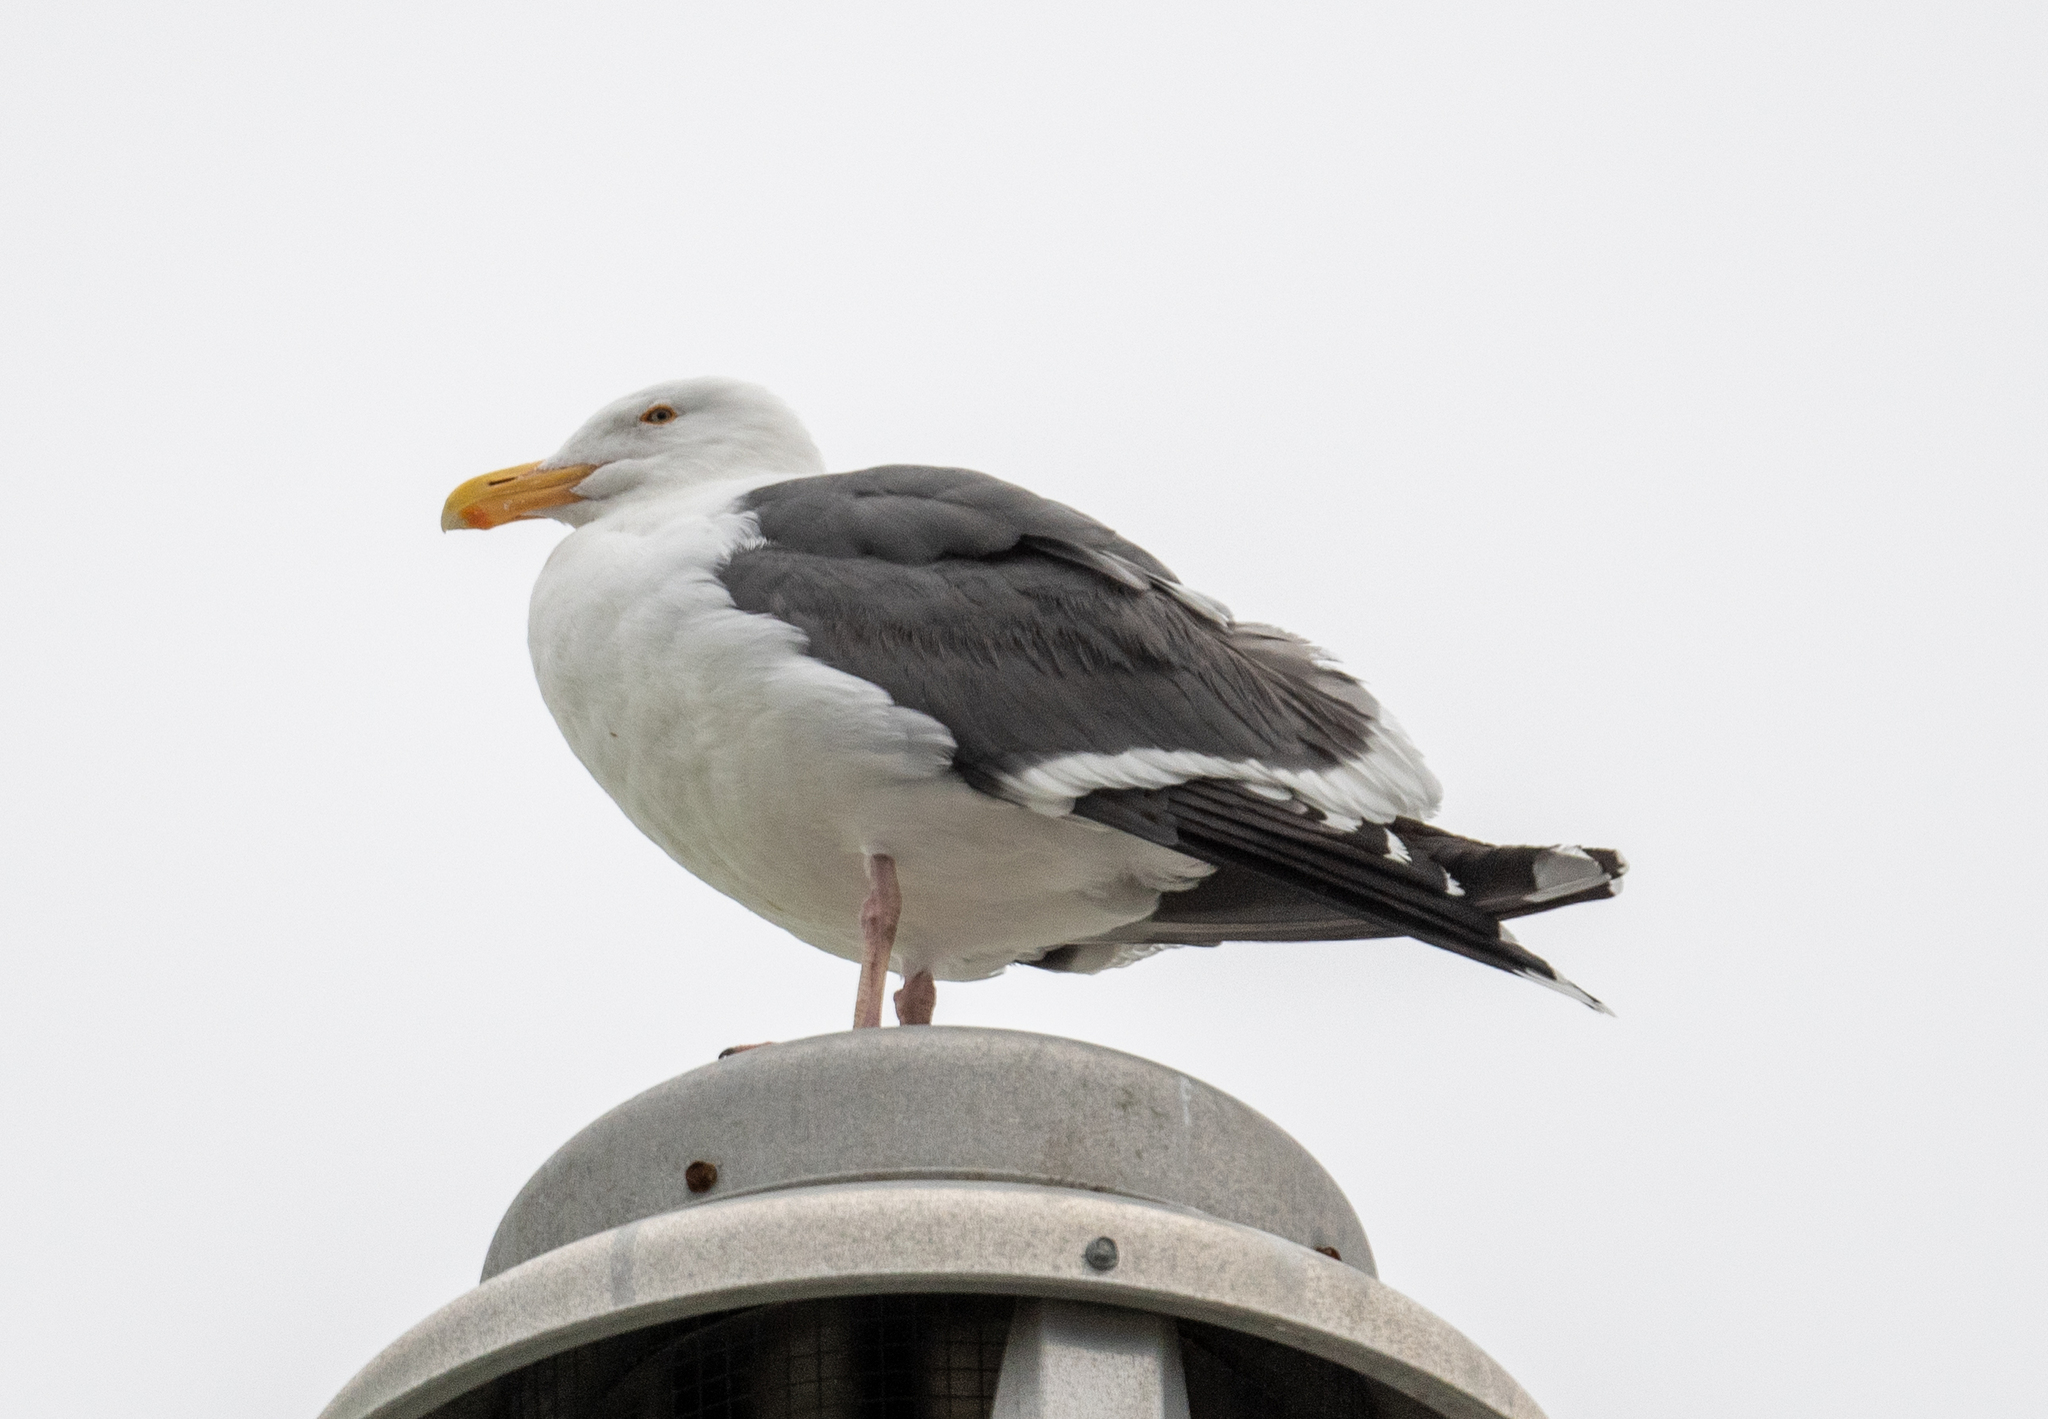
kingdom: Animalia
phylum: Chordata
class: Aves
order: Charadriiformes
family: Laridae
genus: Larus
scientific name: Larus occidentalis
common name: Western gull
